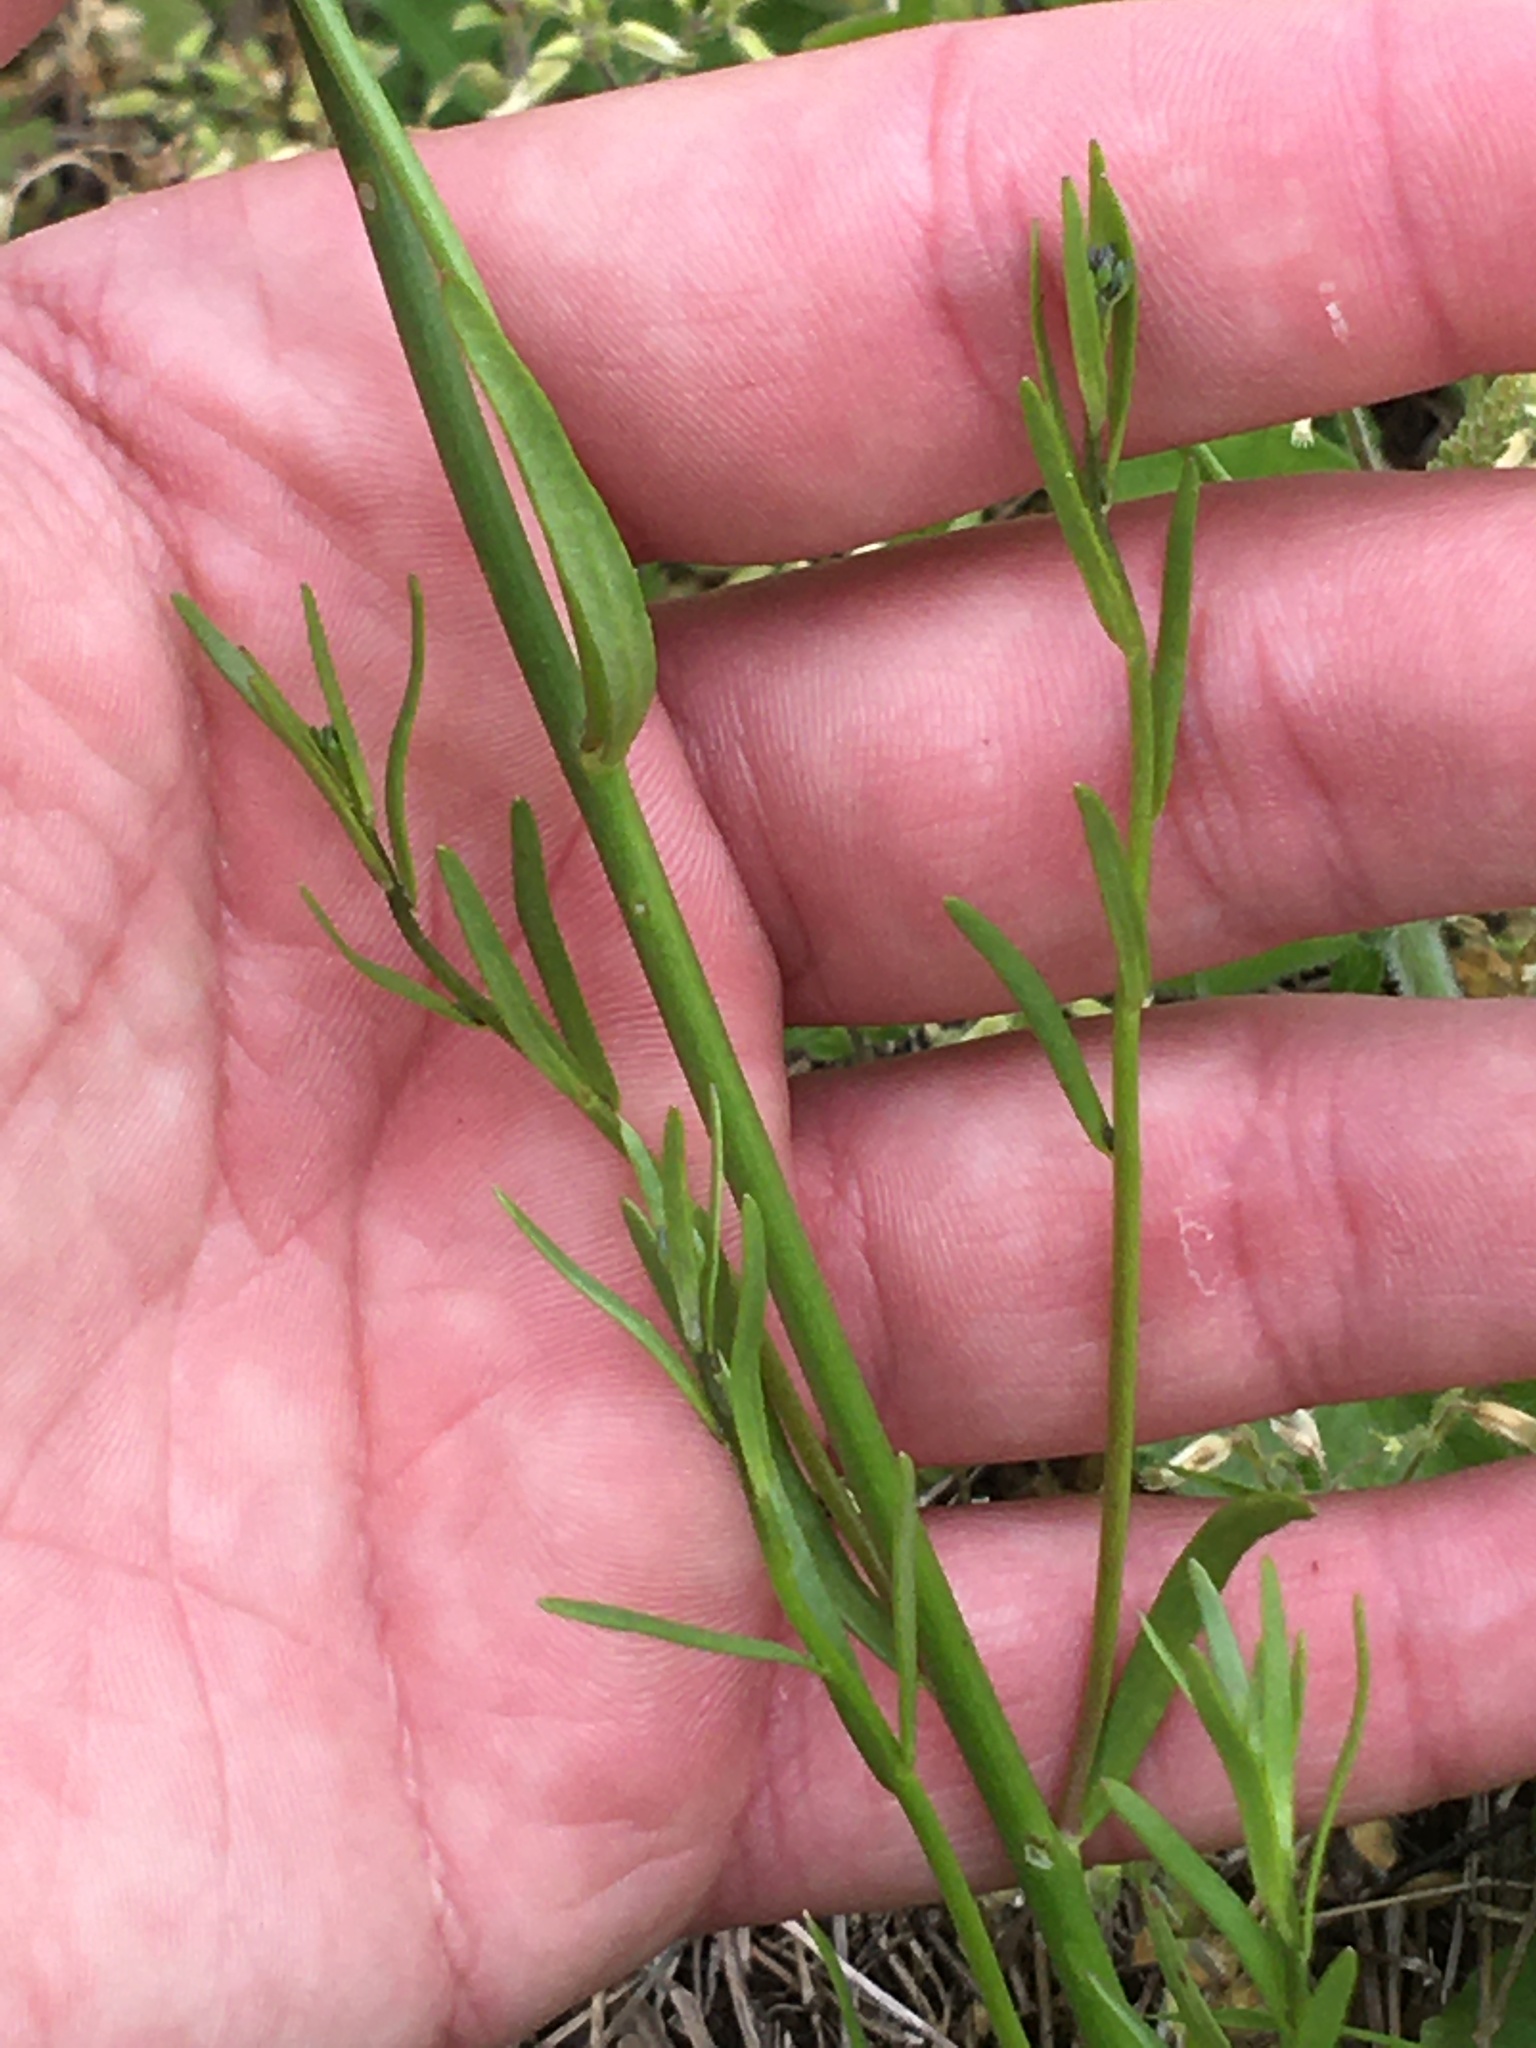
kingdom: Plantae
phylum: Tracheophyta
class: Magnoliopsida
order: Lamiales
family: Plantaginaceae
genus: Nuttallanthus
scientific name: Nuttallanthus texanus
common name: Texas toadflax
